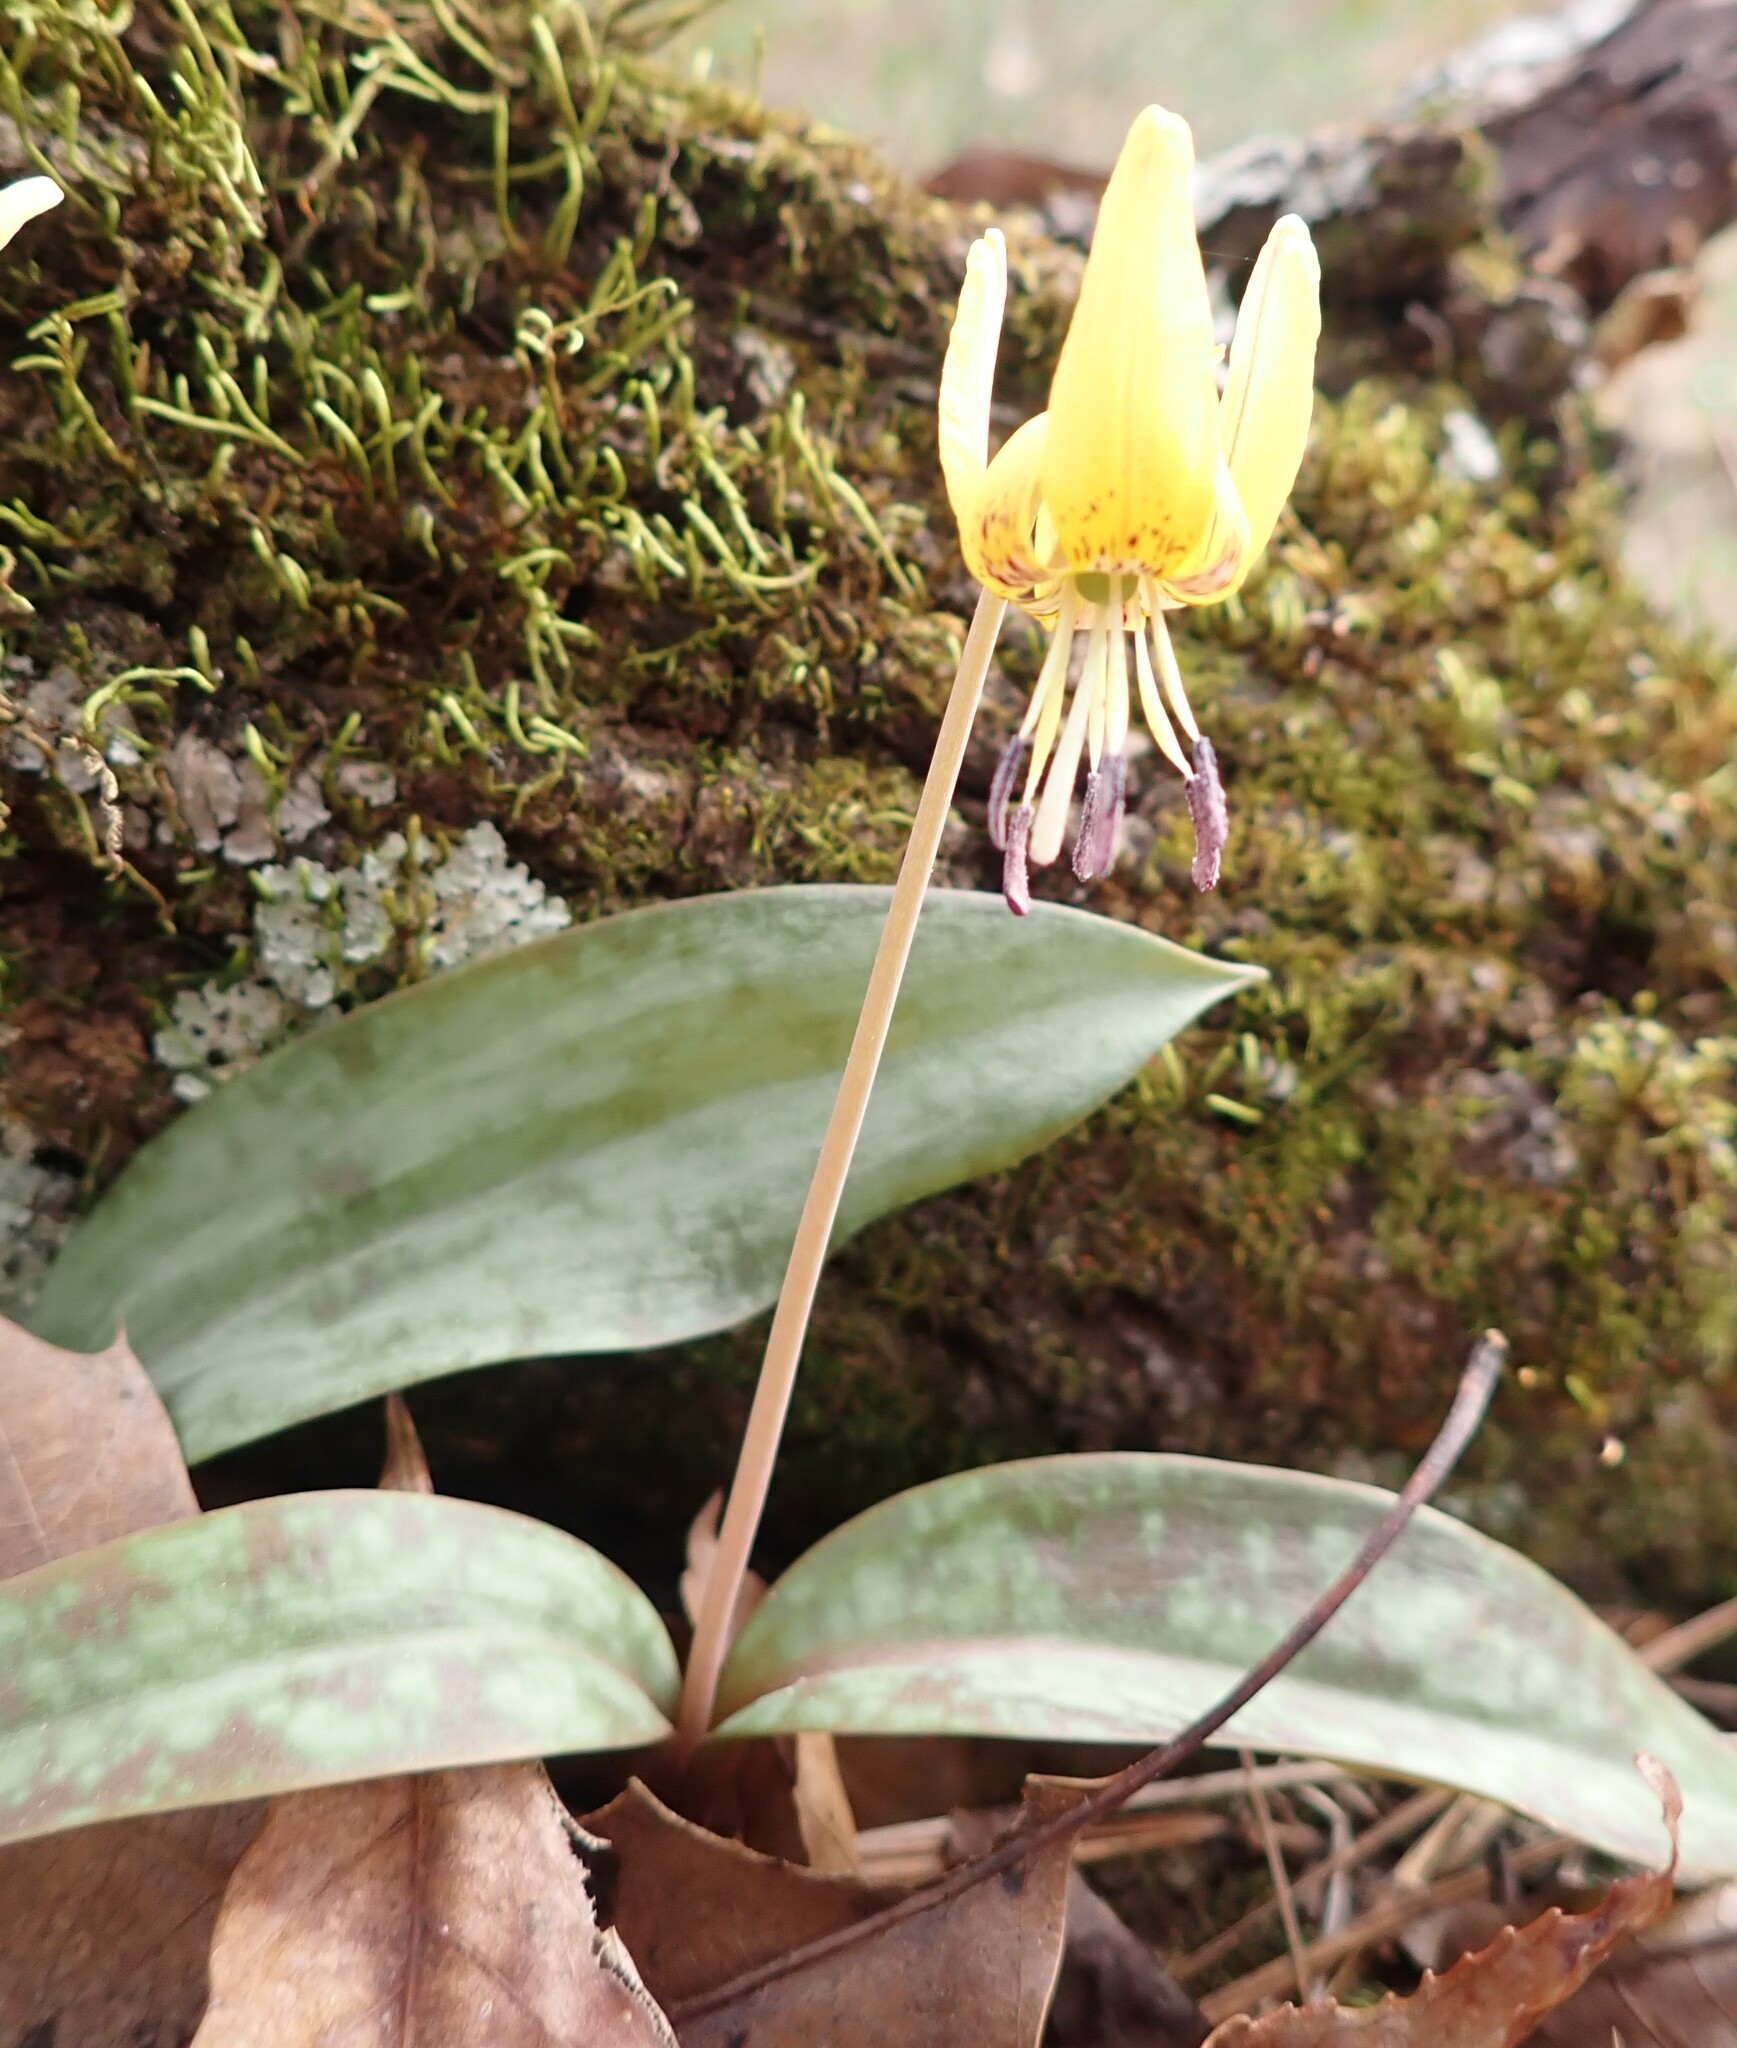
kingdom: Plantae
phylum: Tracheophyta
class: Liliopsida
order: Liliales
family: Liliaceae
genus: Erythronium
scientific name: Erythronium umbilicatum
